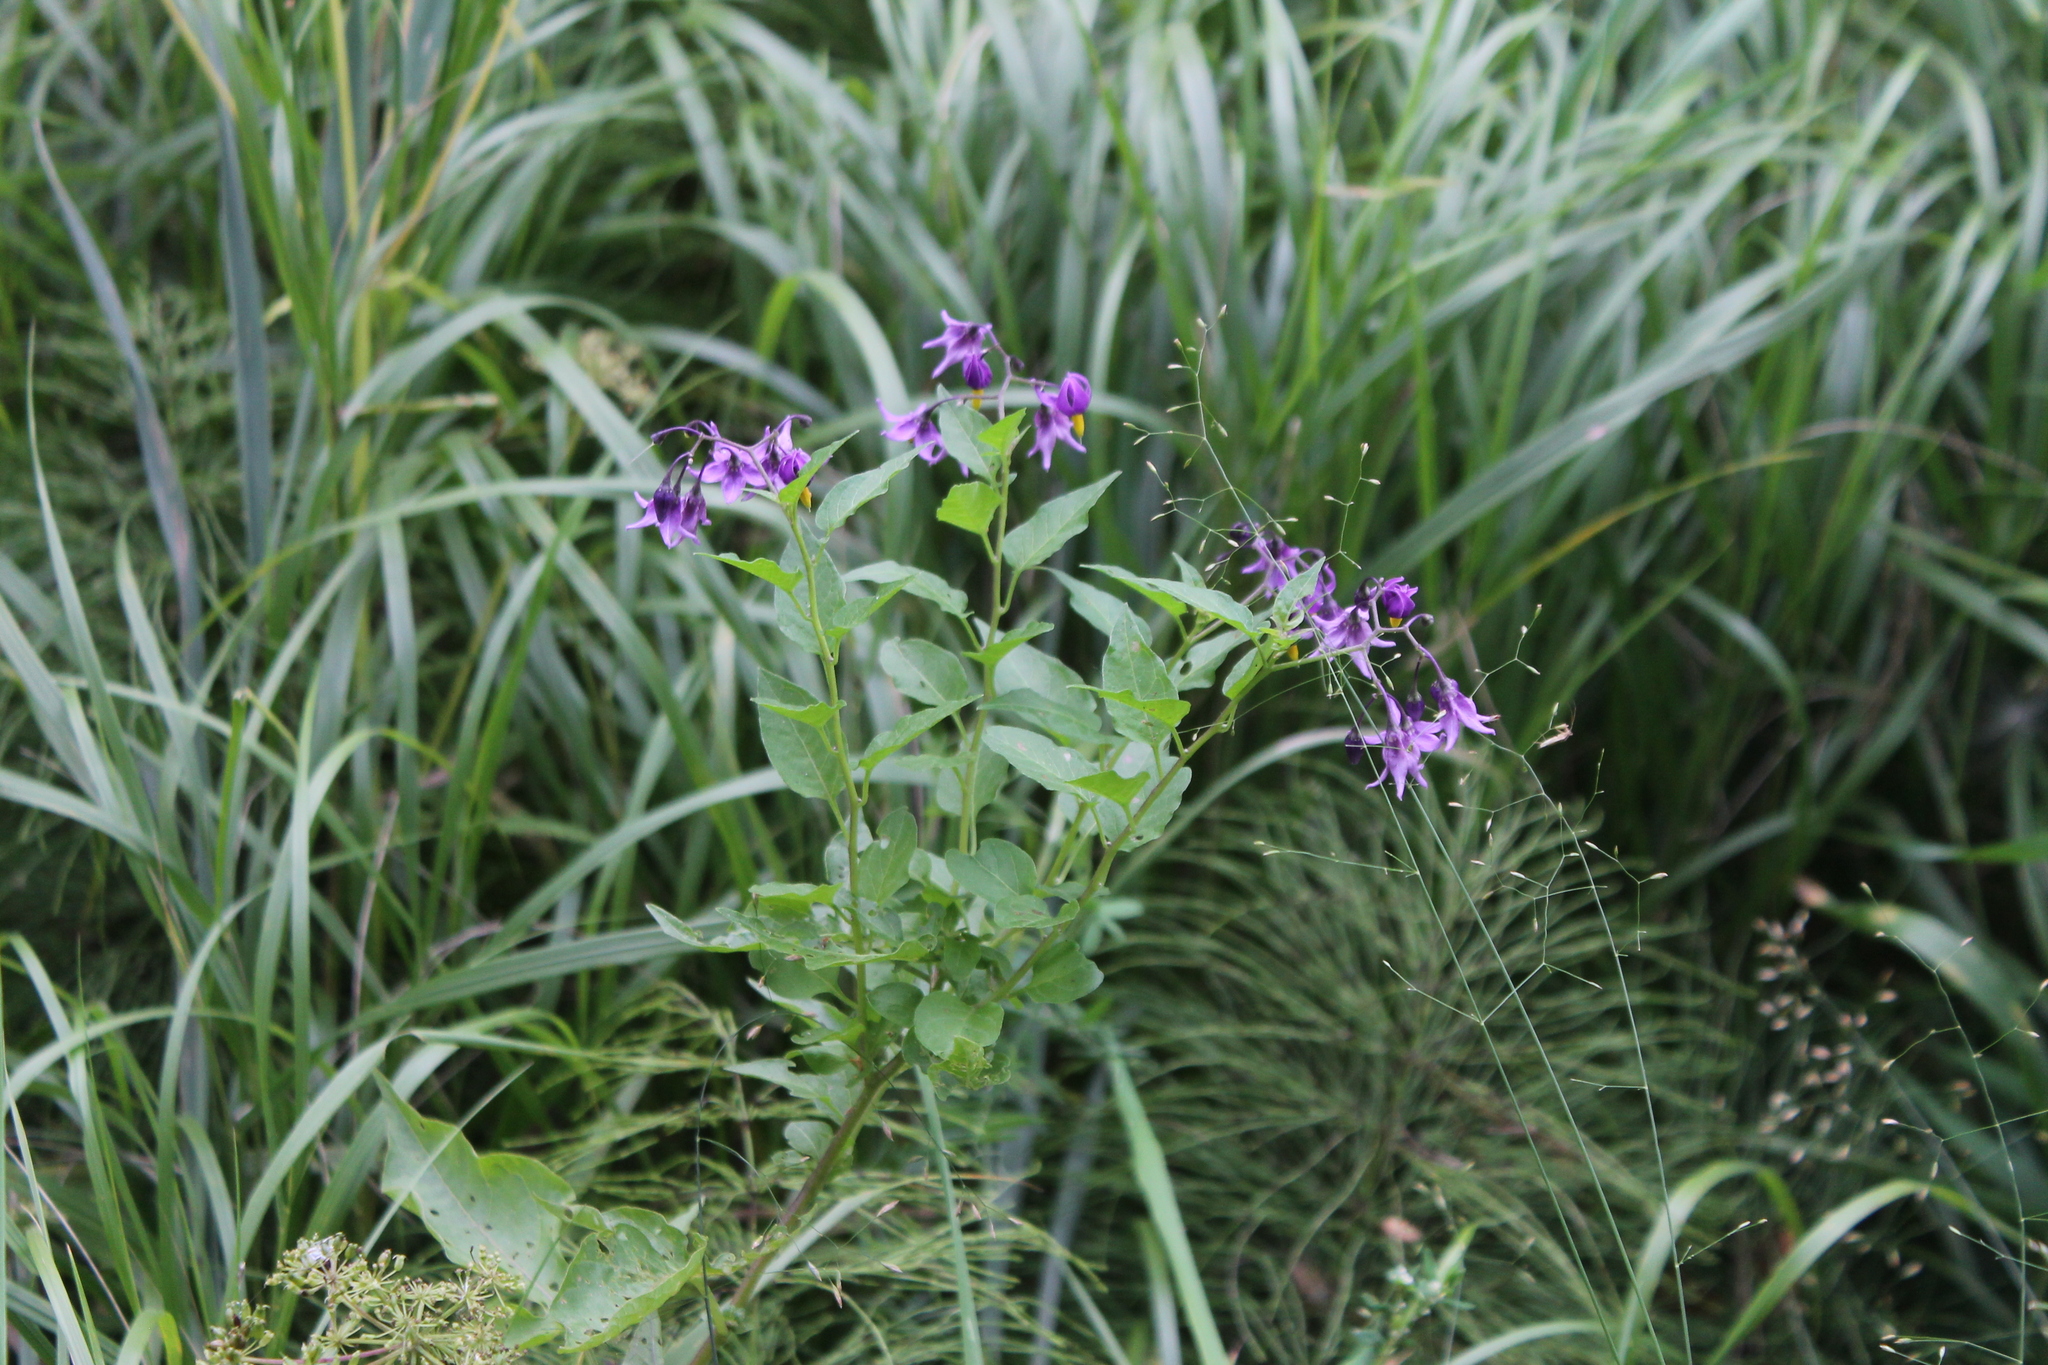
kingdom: Plantae
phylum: Tracheophyta
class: Magnoliopsida
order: Solanales
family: Solanaceae
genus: Solanum
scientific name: Solanum dulcamara
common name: Climbing nightshade
